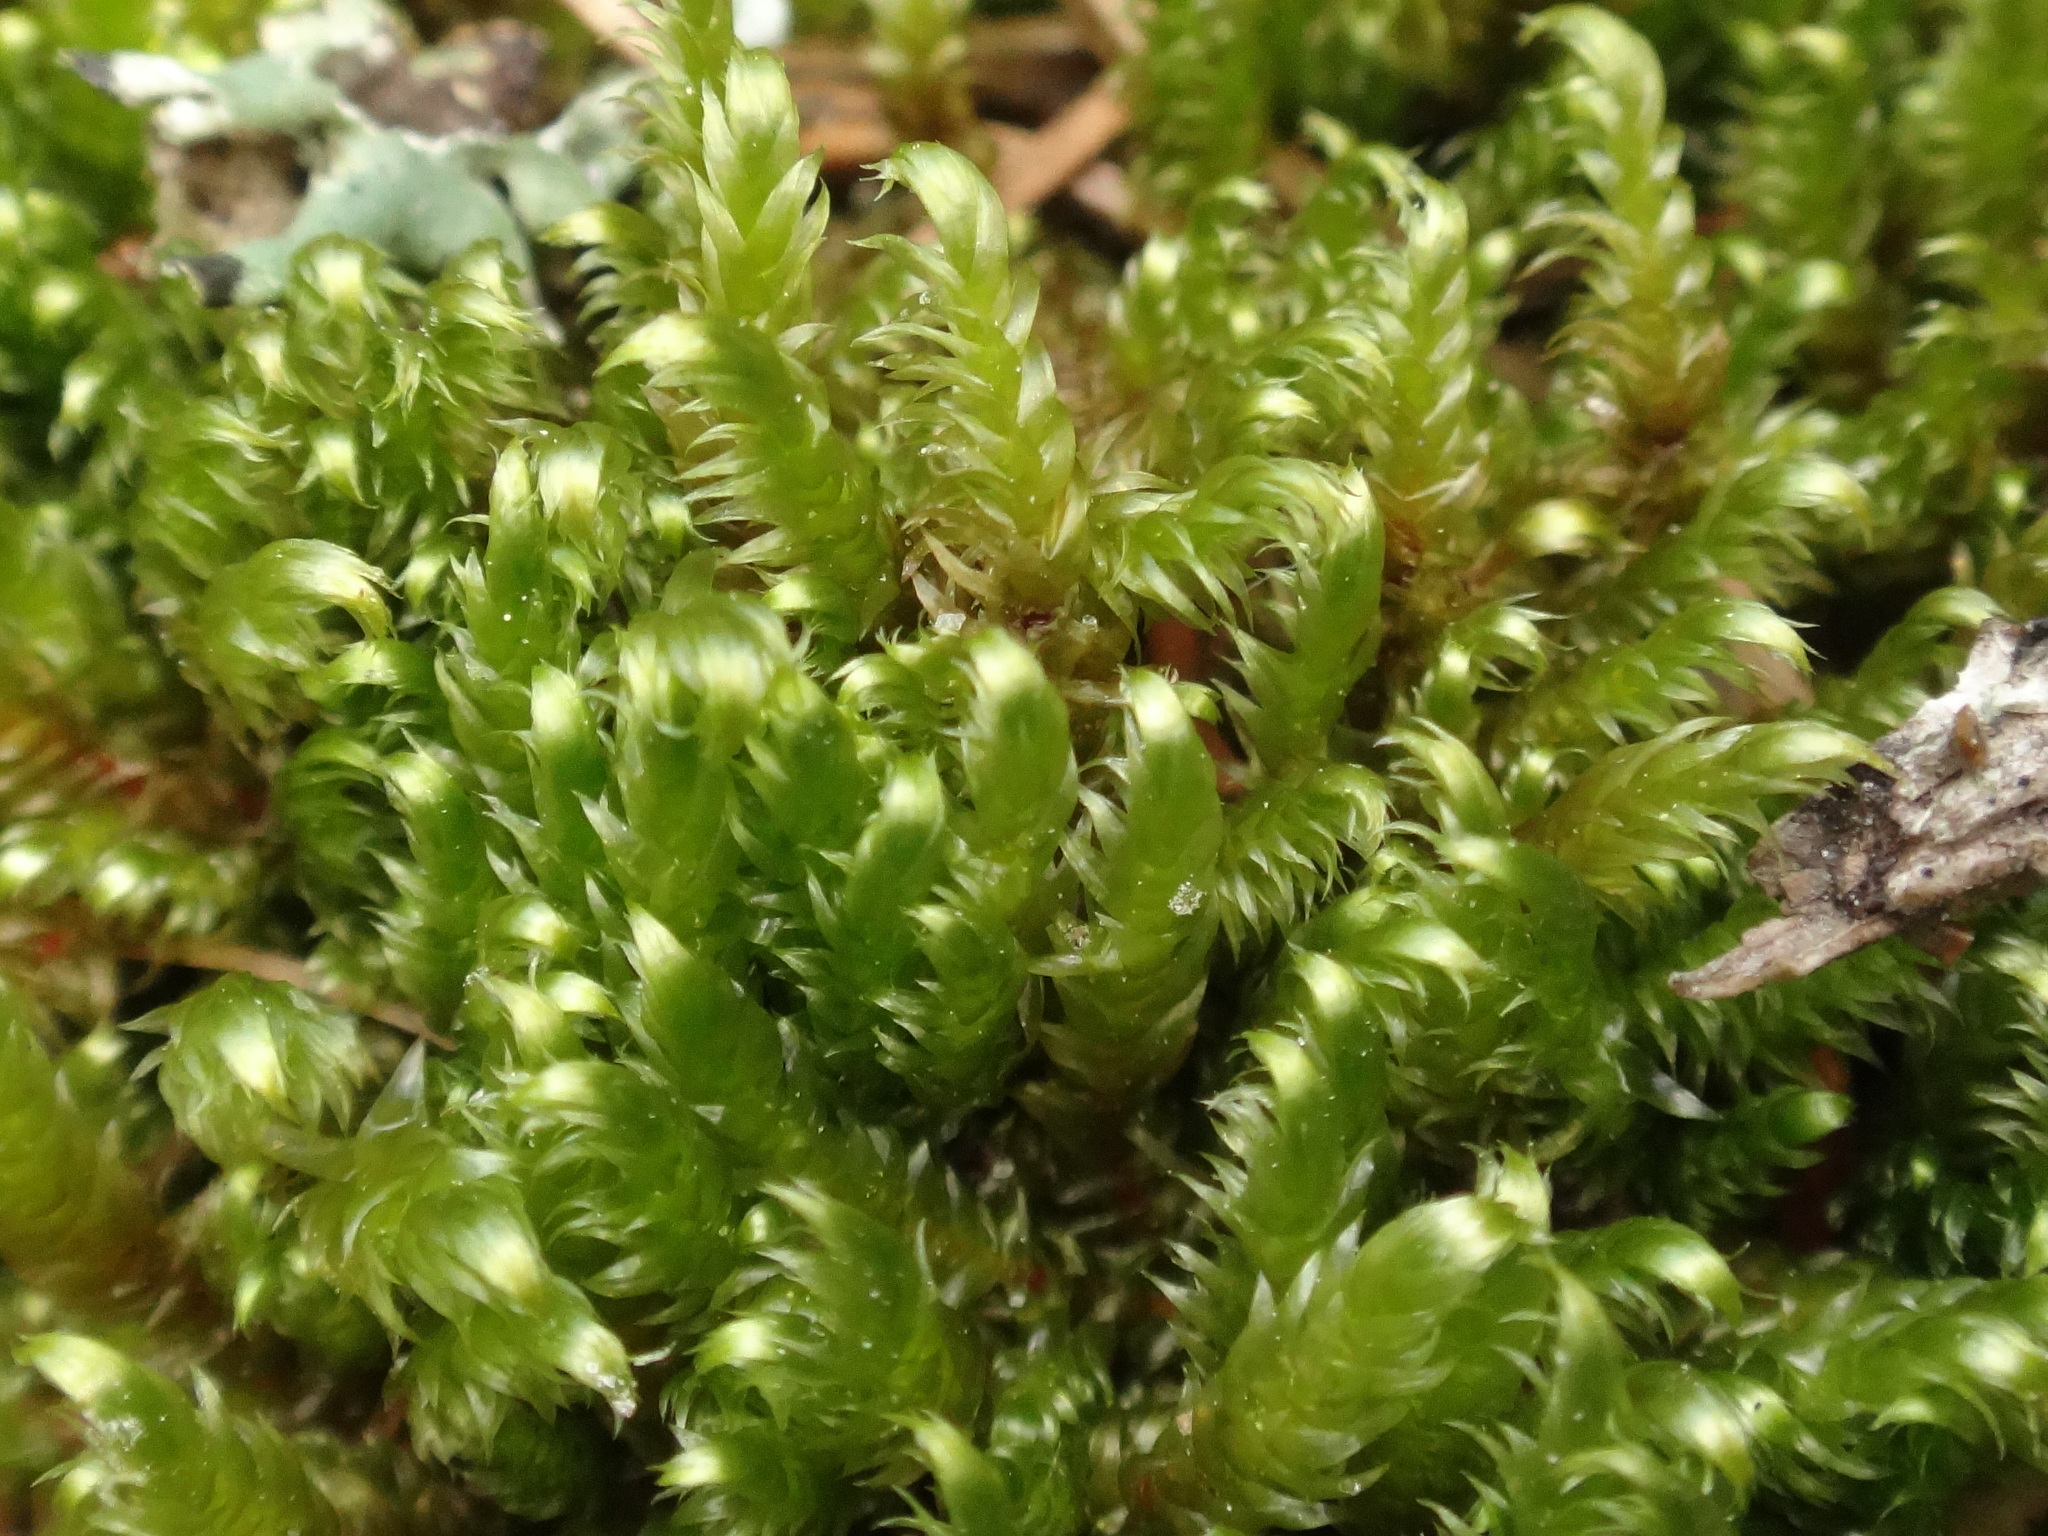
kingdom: Plantae
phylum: Bryophyta
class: Bryopsida
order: Hypnales
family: Pylaisiaceae
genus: Calliergonella
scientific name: Calliergonella lindbergii
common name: Lindberg's plait-moss
